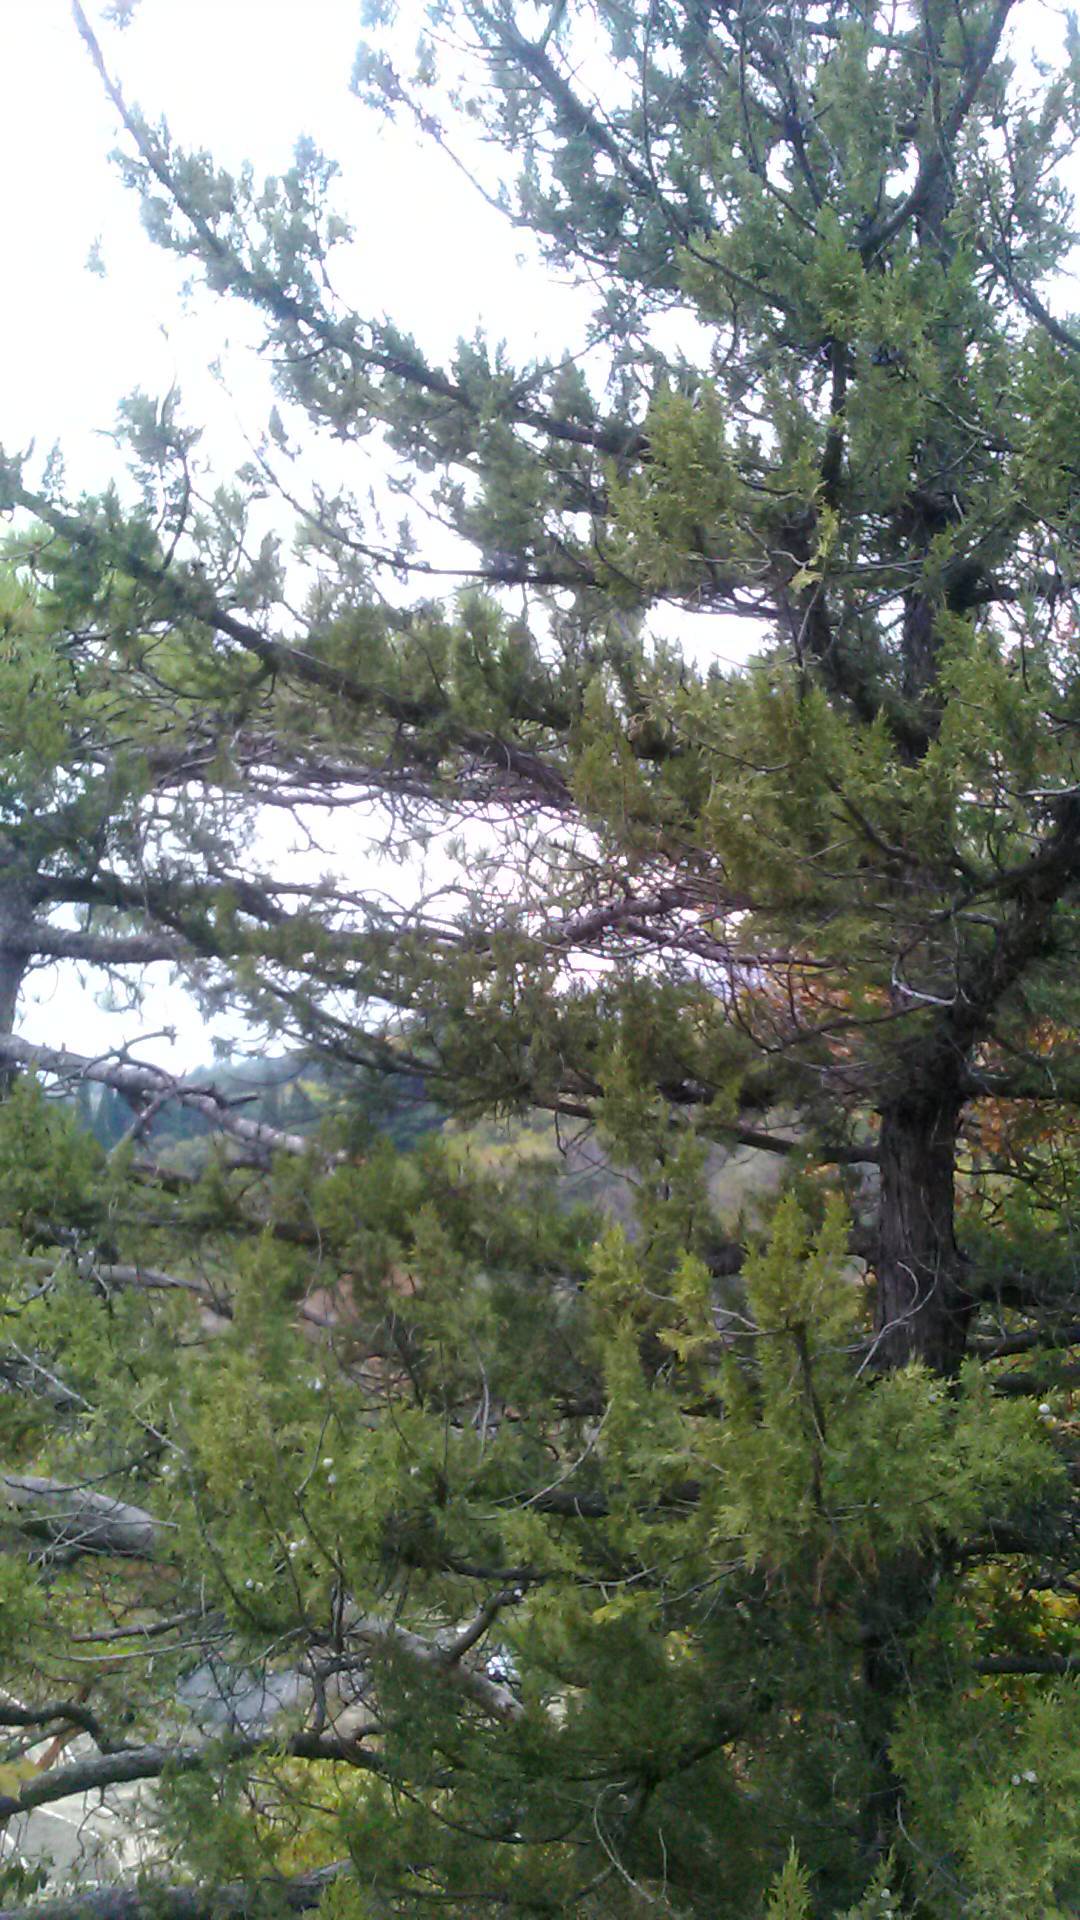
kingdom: Plantae
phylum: Tracheophyta
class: Pinopsida
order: Pinales
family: Cupressaceae
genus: Juniperus
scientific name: Juniperus excelsa
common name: Crimean juniper
